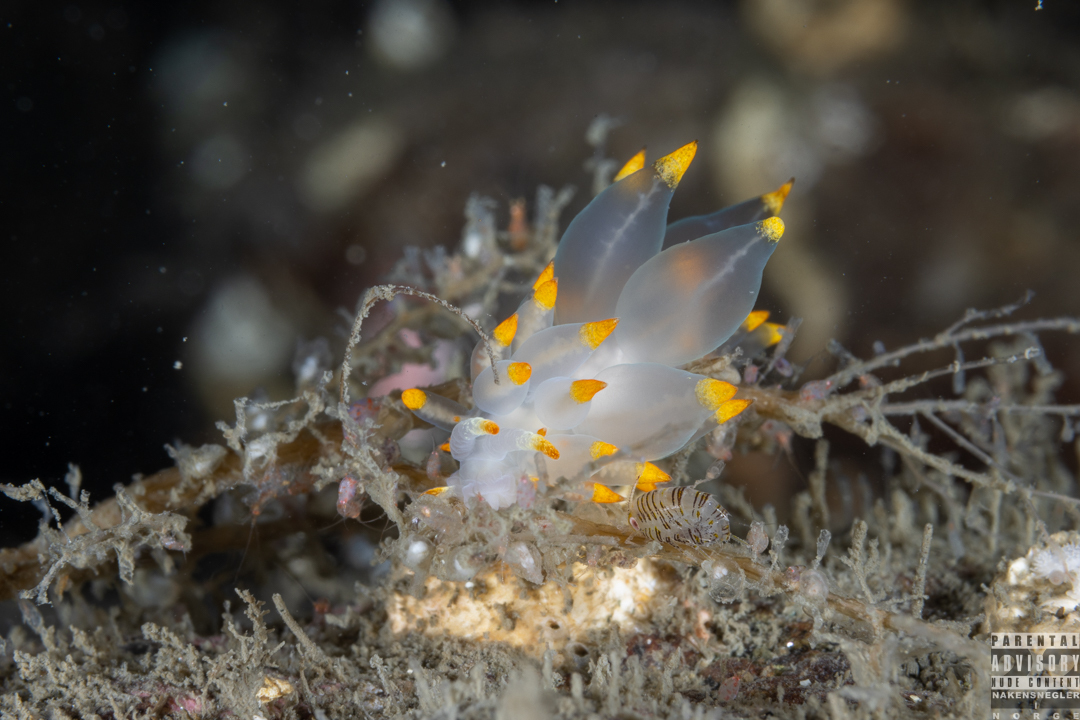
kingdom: Animalia
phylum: Mollusca
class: Gastropoda
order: Nudibranchia
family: Eubranchidae
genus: Amphorina
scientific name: Amphorina farrani
